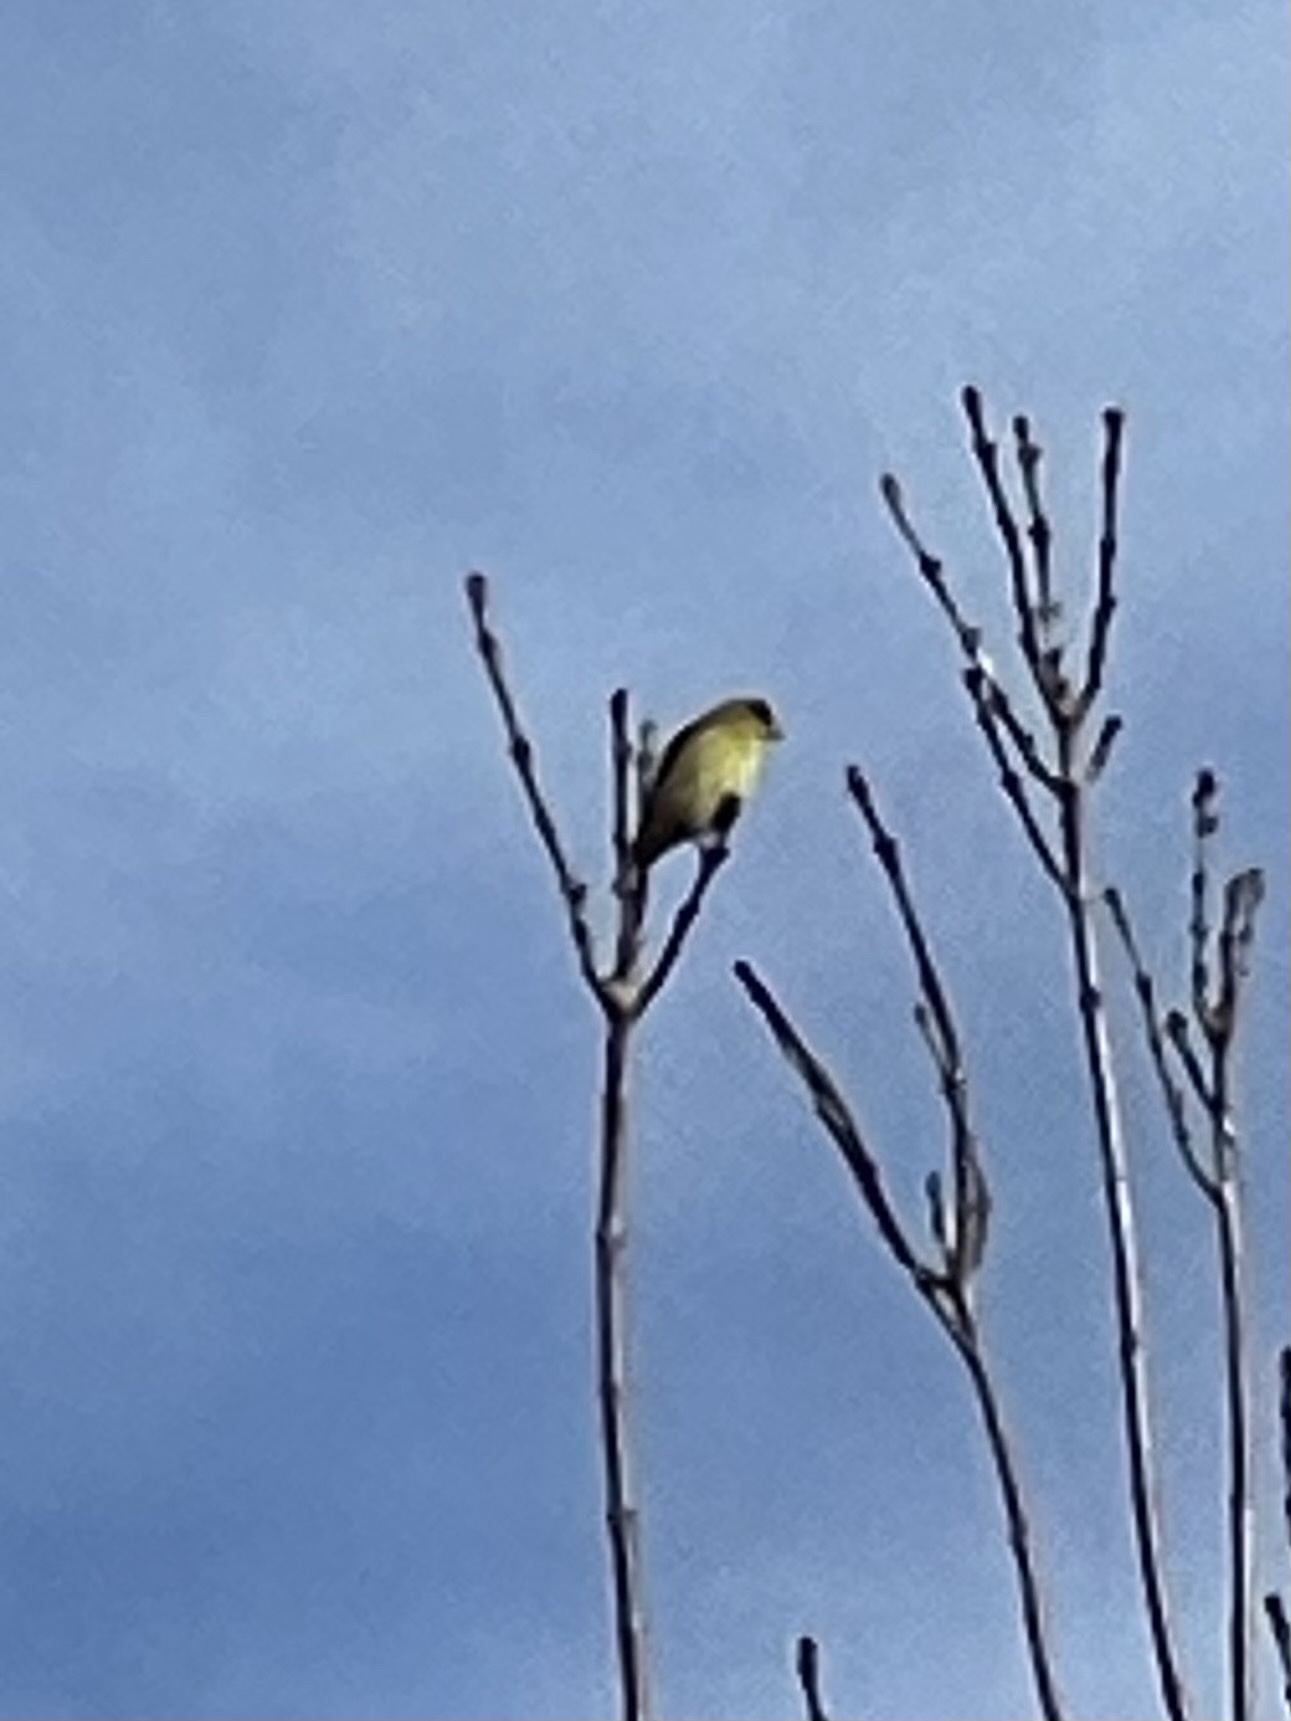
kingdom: Animalia
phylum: Chordata
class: Aves
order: Passeriformes
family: Fringillidae
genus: Spinus
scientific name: Spinus psaltria
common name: Lesser goldfinch
